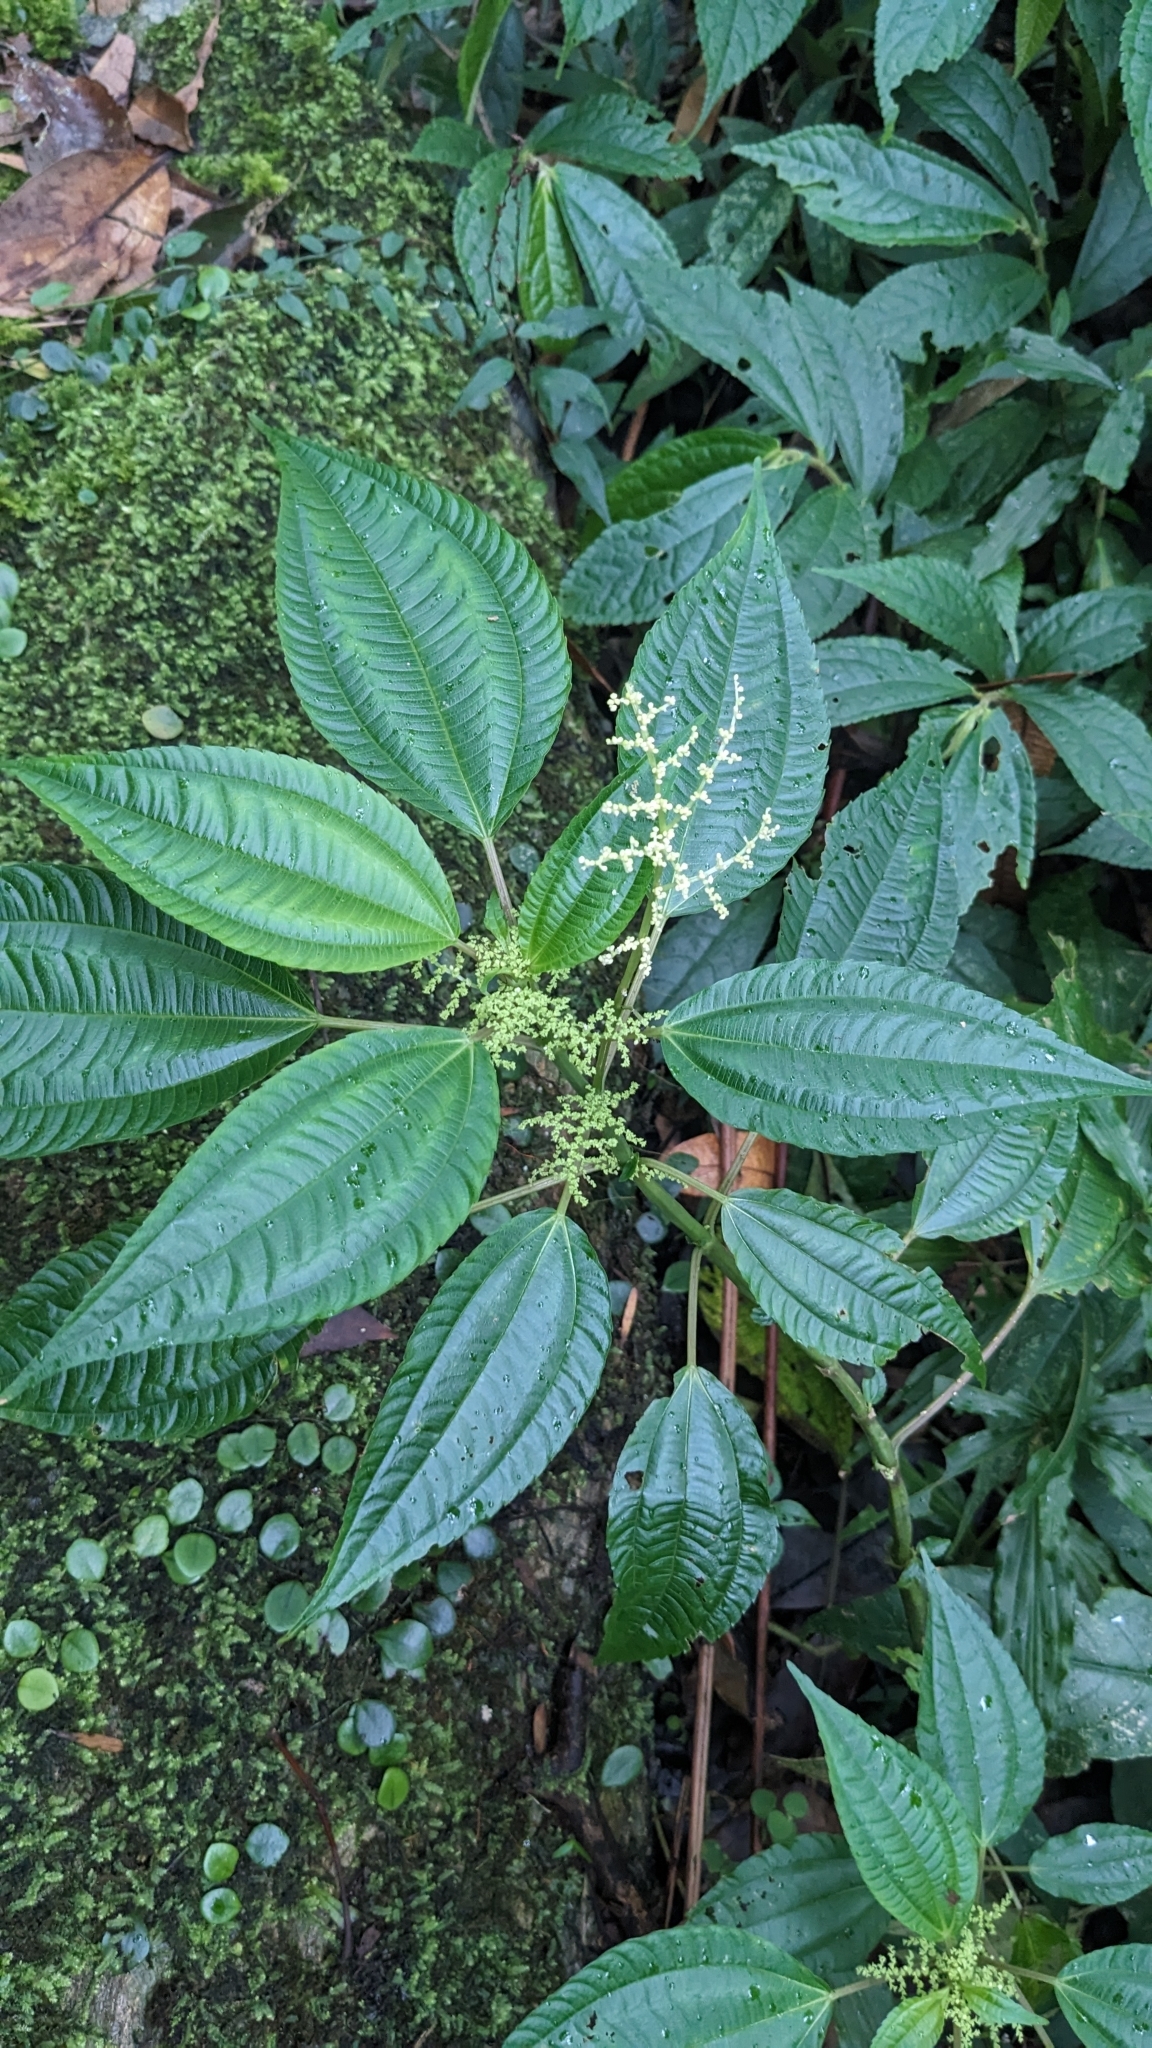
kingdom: Plantae
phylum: Tracheophyta
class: Magnoliopsida
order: Rosales
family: Urticaceae
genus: Pilea
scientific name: Pilea melastomoides
